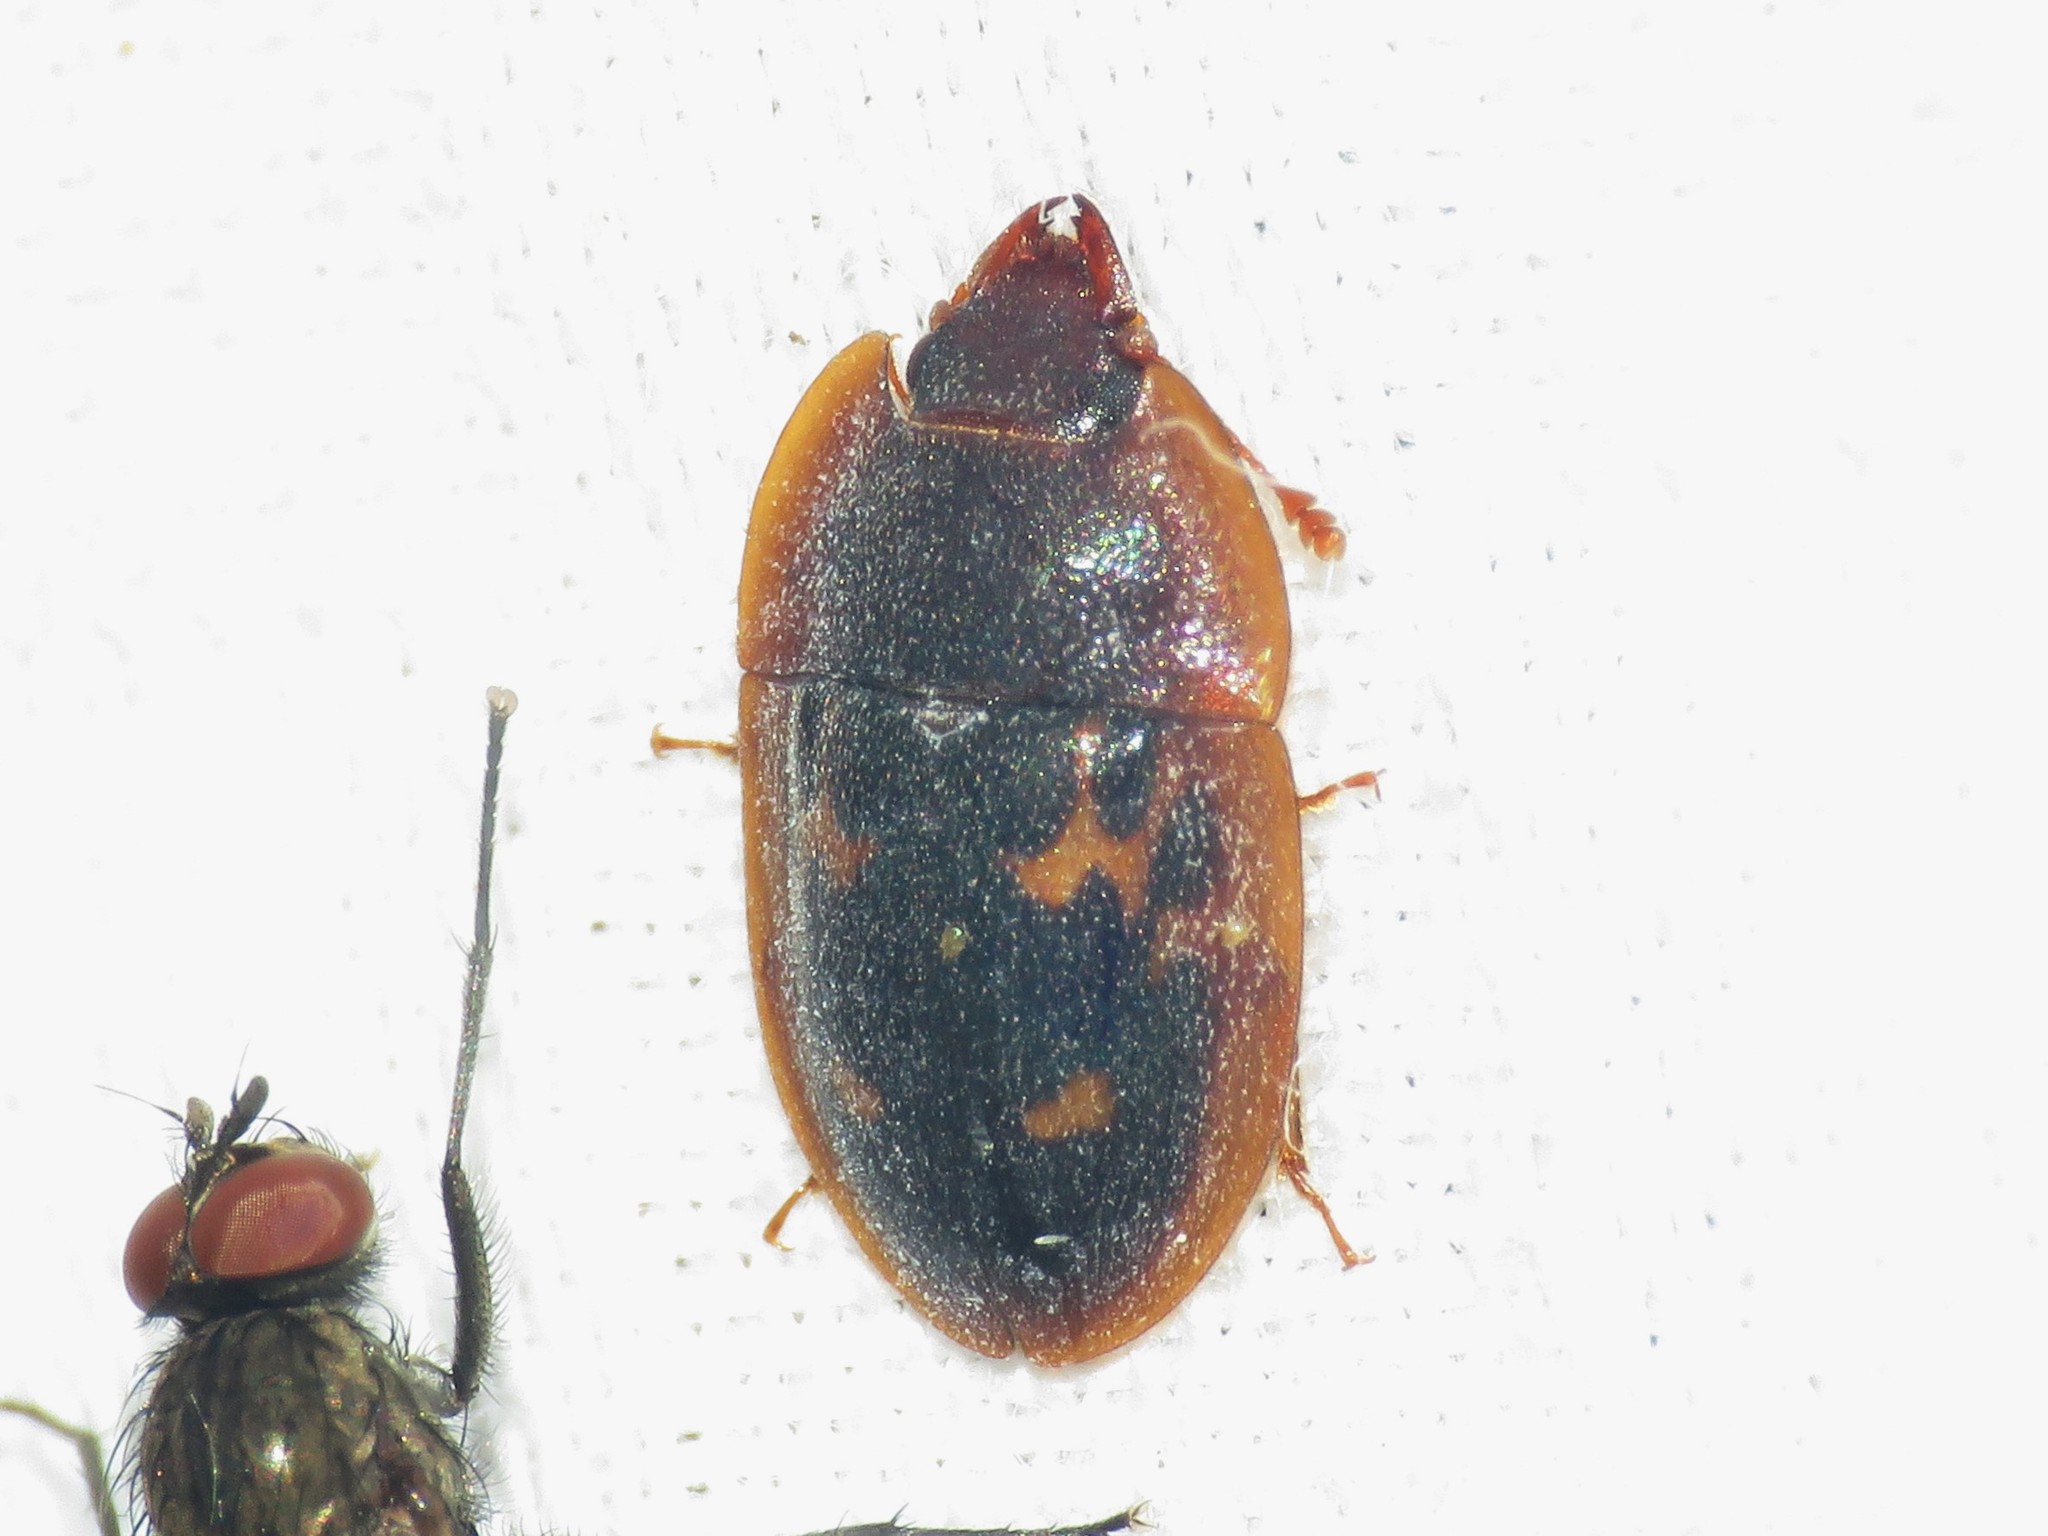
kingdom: Animalia
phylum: Arthropoda
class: Insecta
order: Coleoptera
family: Nitidulidae
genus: Prometopia
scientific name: Prometopia sexmaculata
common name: Six-spotted sap-feeding beetle
